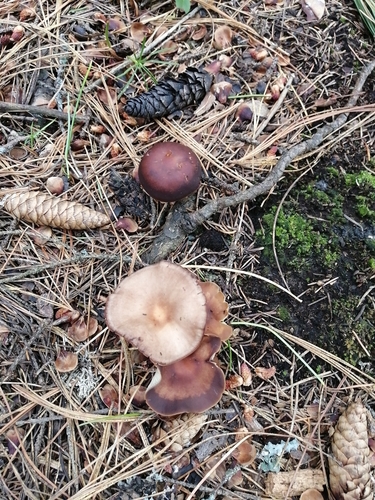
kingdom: Fungi
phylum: Basidiomycota
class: Agaricomycetes
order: Agaricales
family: Omphalotaceae
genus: Gymnopus
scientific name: Gymnopus ocior
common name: Spring toughshank
